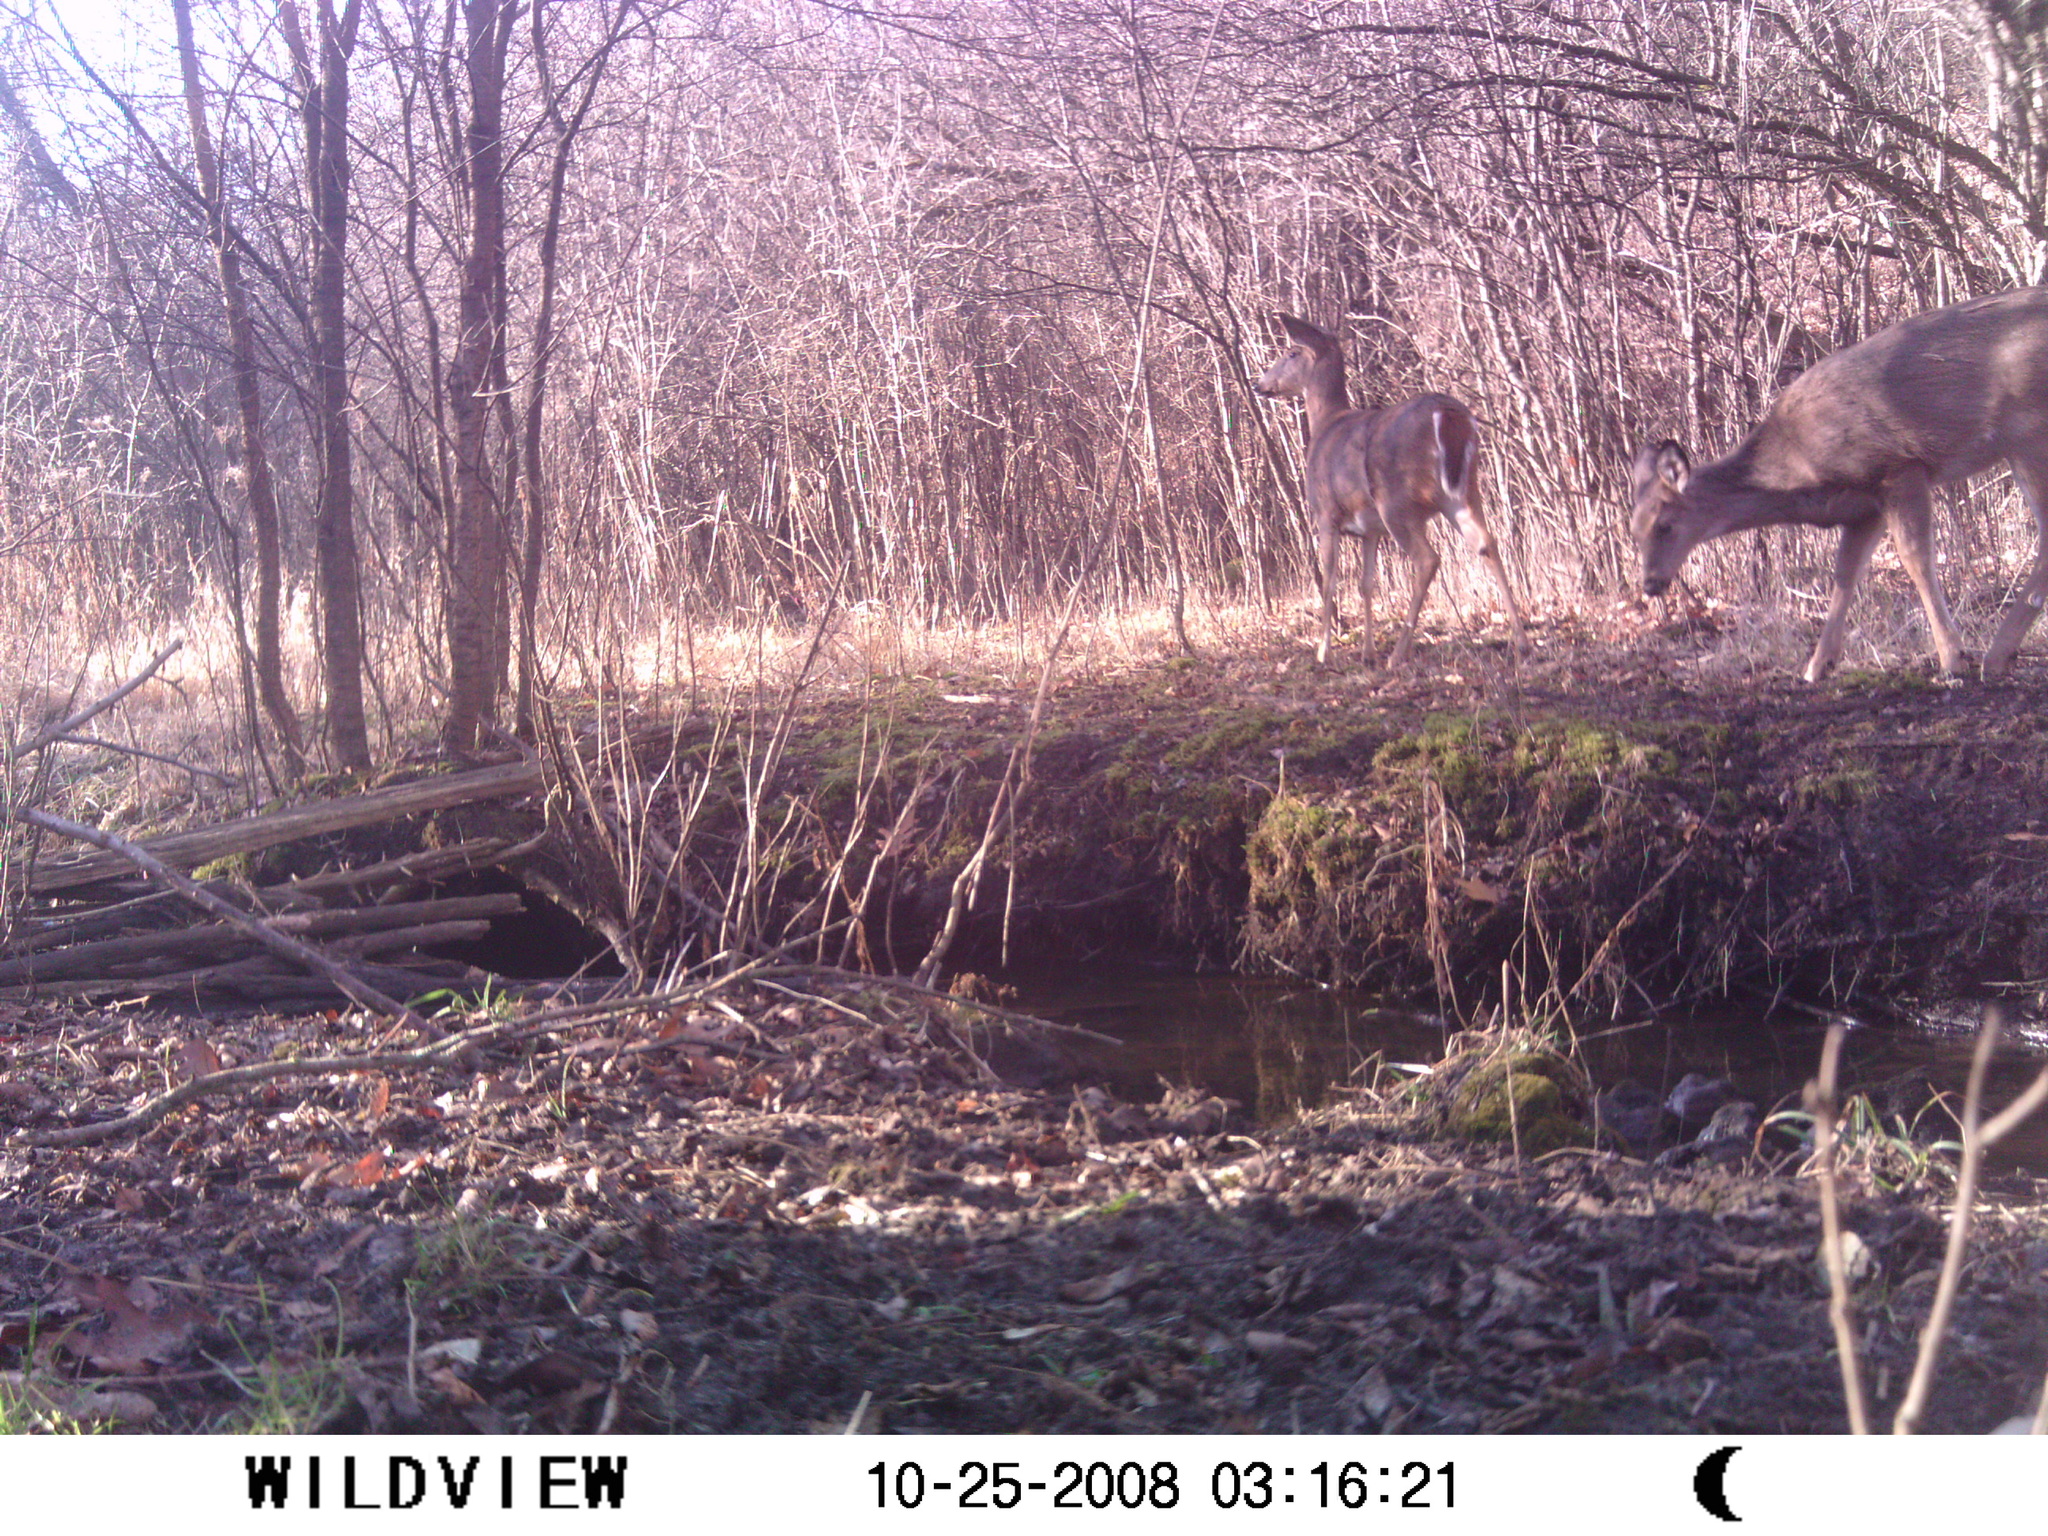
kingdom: Animalia
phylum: Chordata
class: Mammalia
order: Artiodactyla
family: Cervidae
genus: Odocoileus
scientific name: Odocoileus virginianus
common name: White-tailed deer
